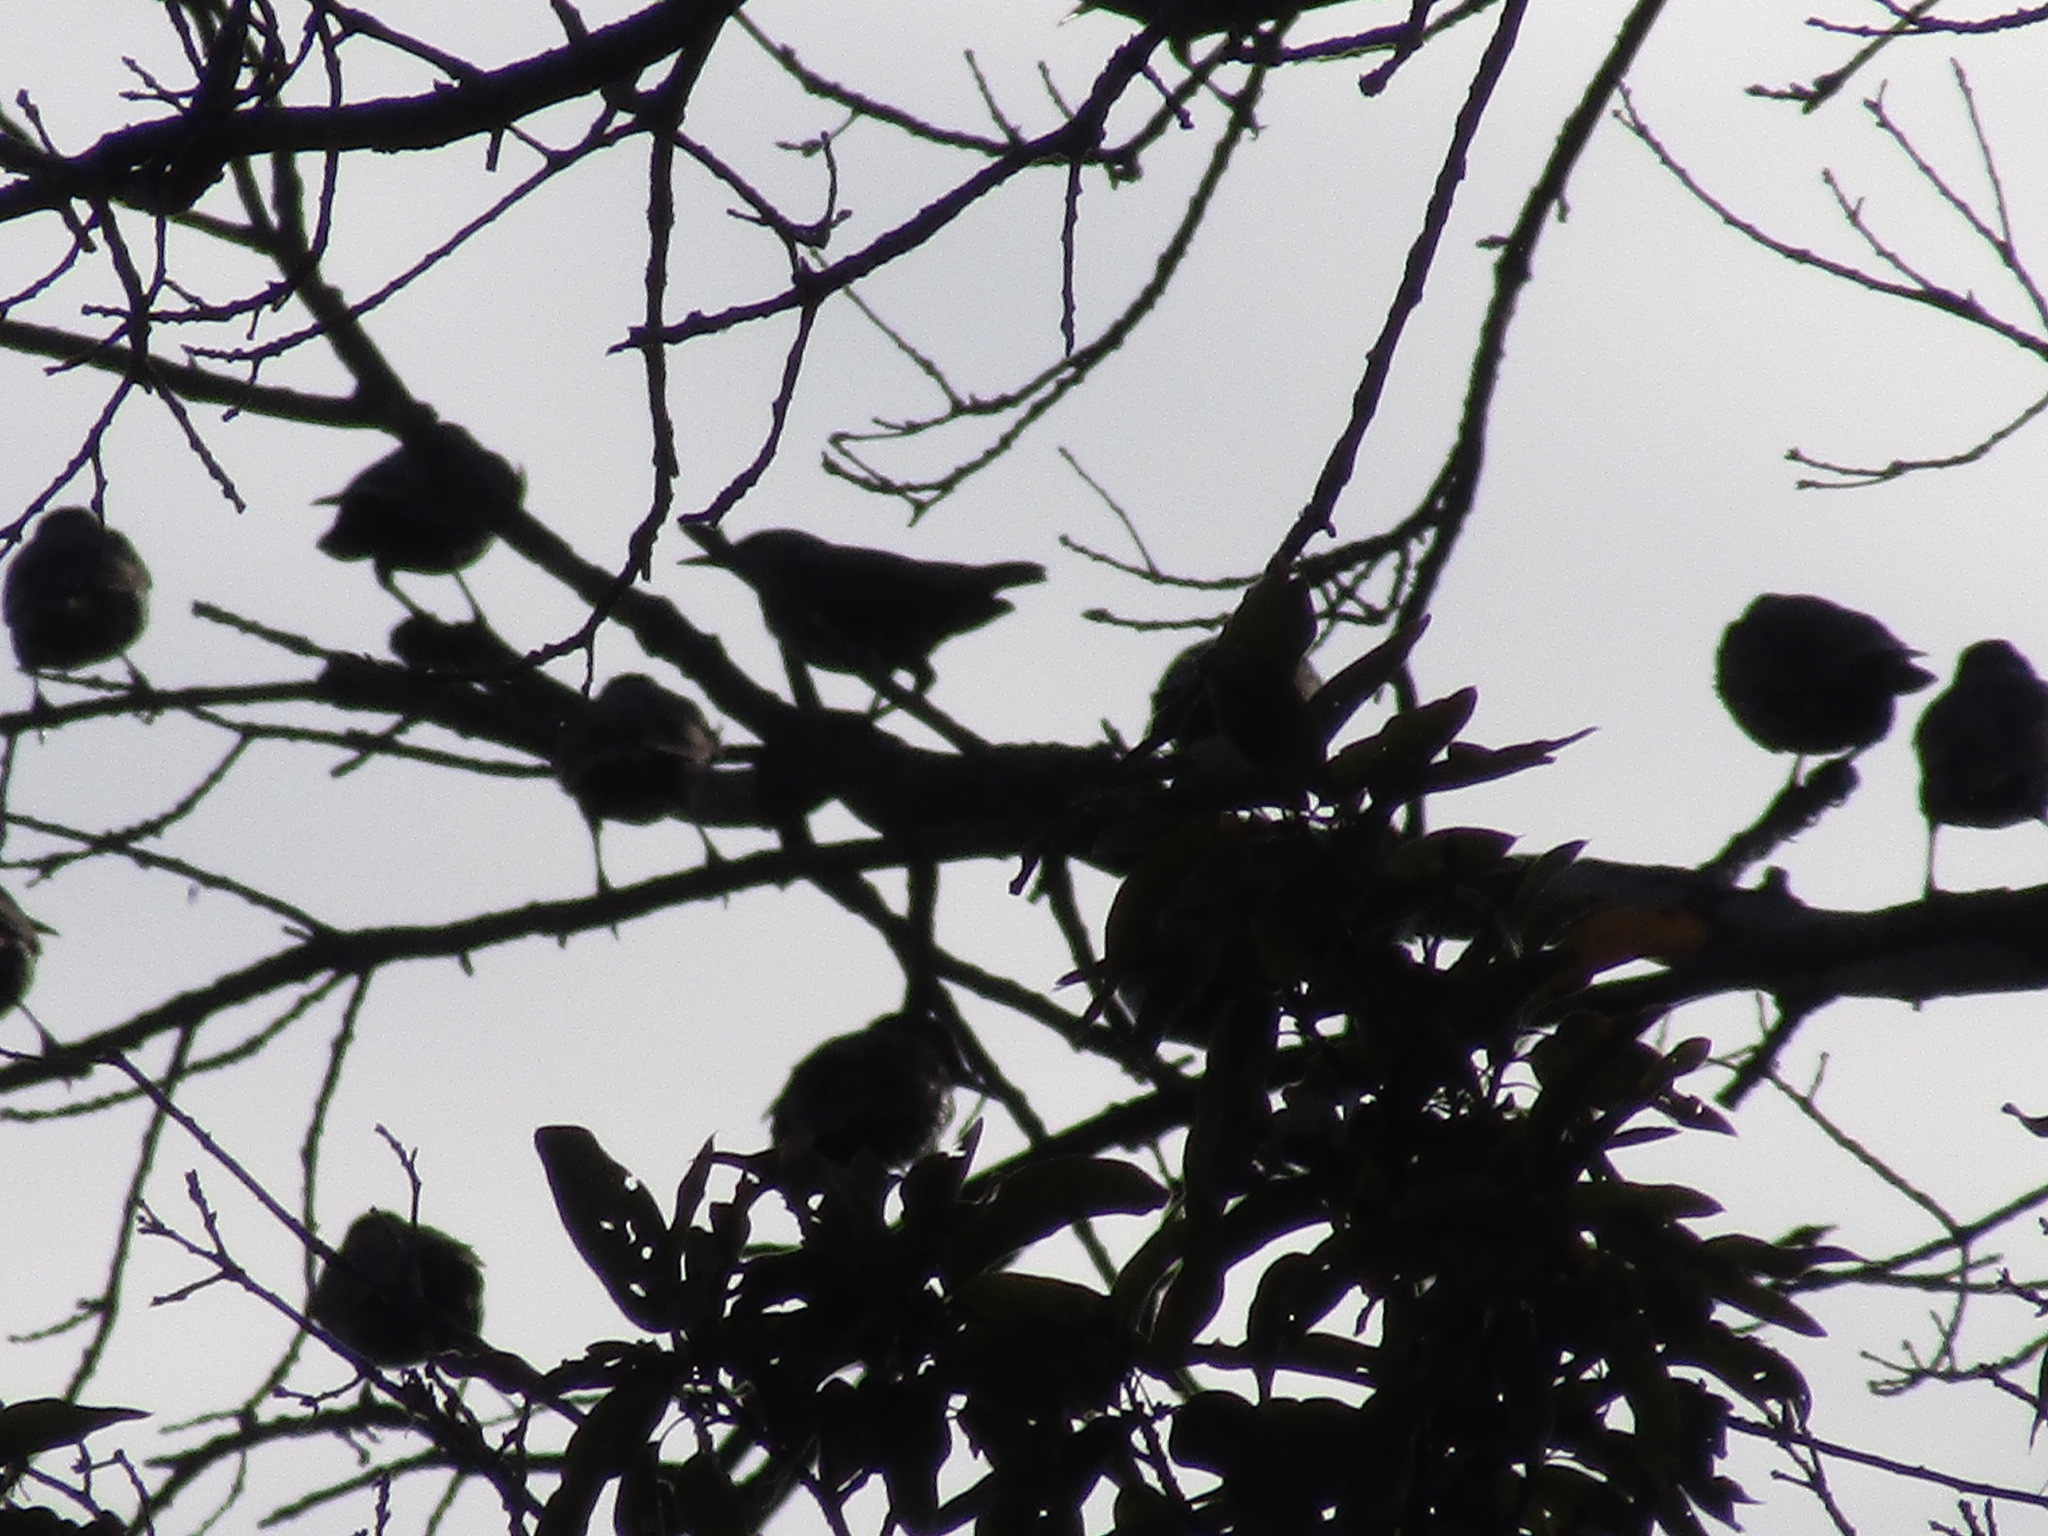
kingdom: Animalia
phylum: Chordata
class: Aves
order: Passeriformes
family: Sturnidae
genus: Sturnus
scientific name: Sturnus vulgaris
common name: Common starling
